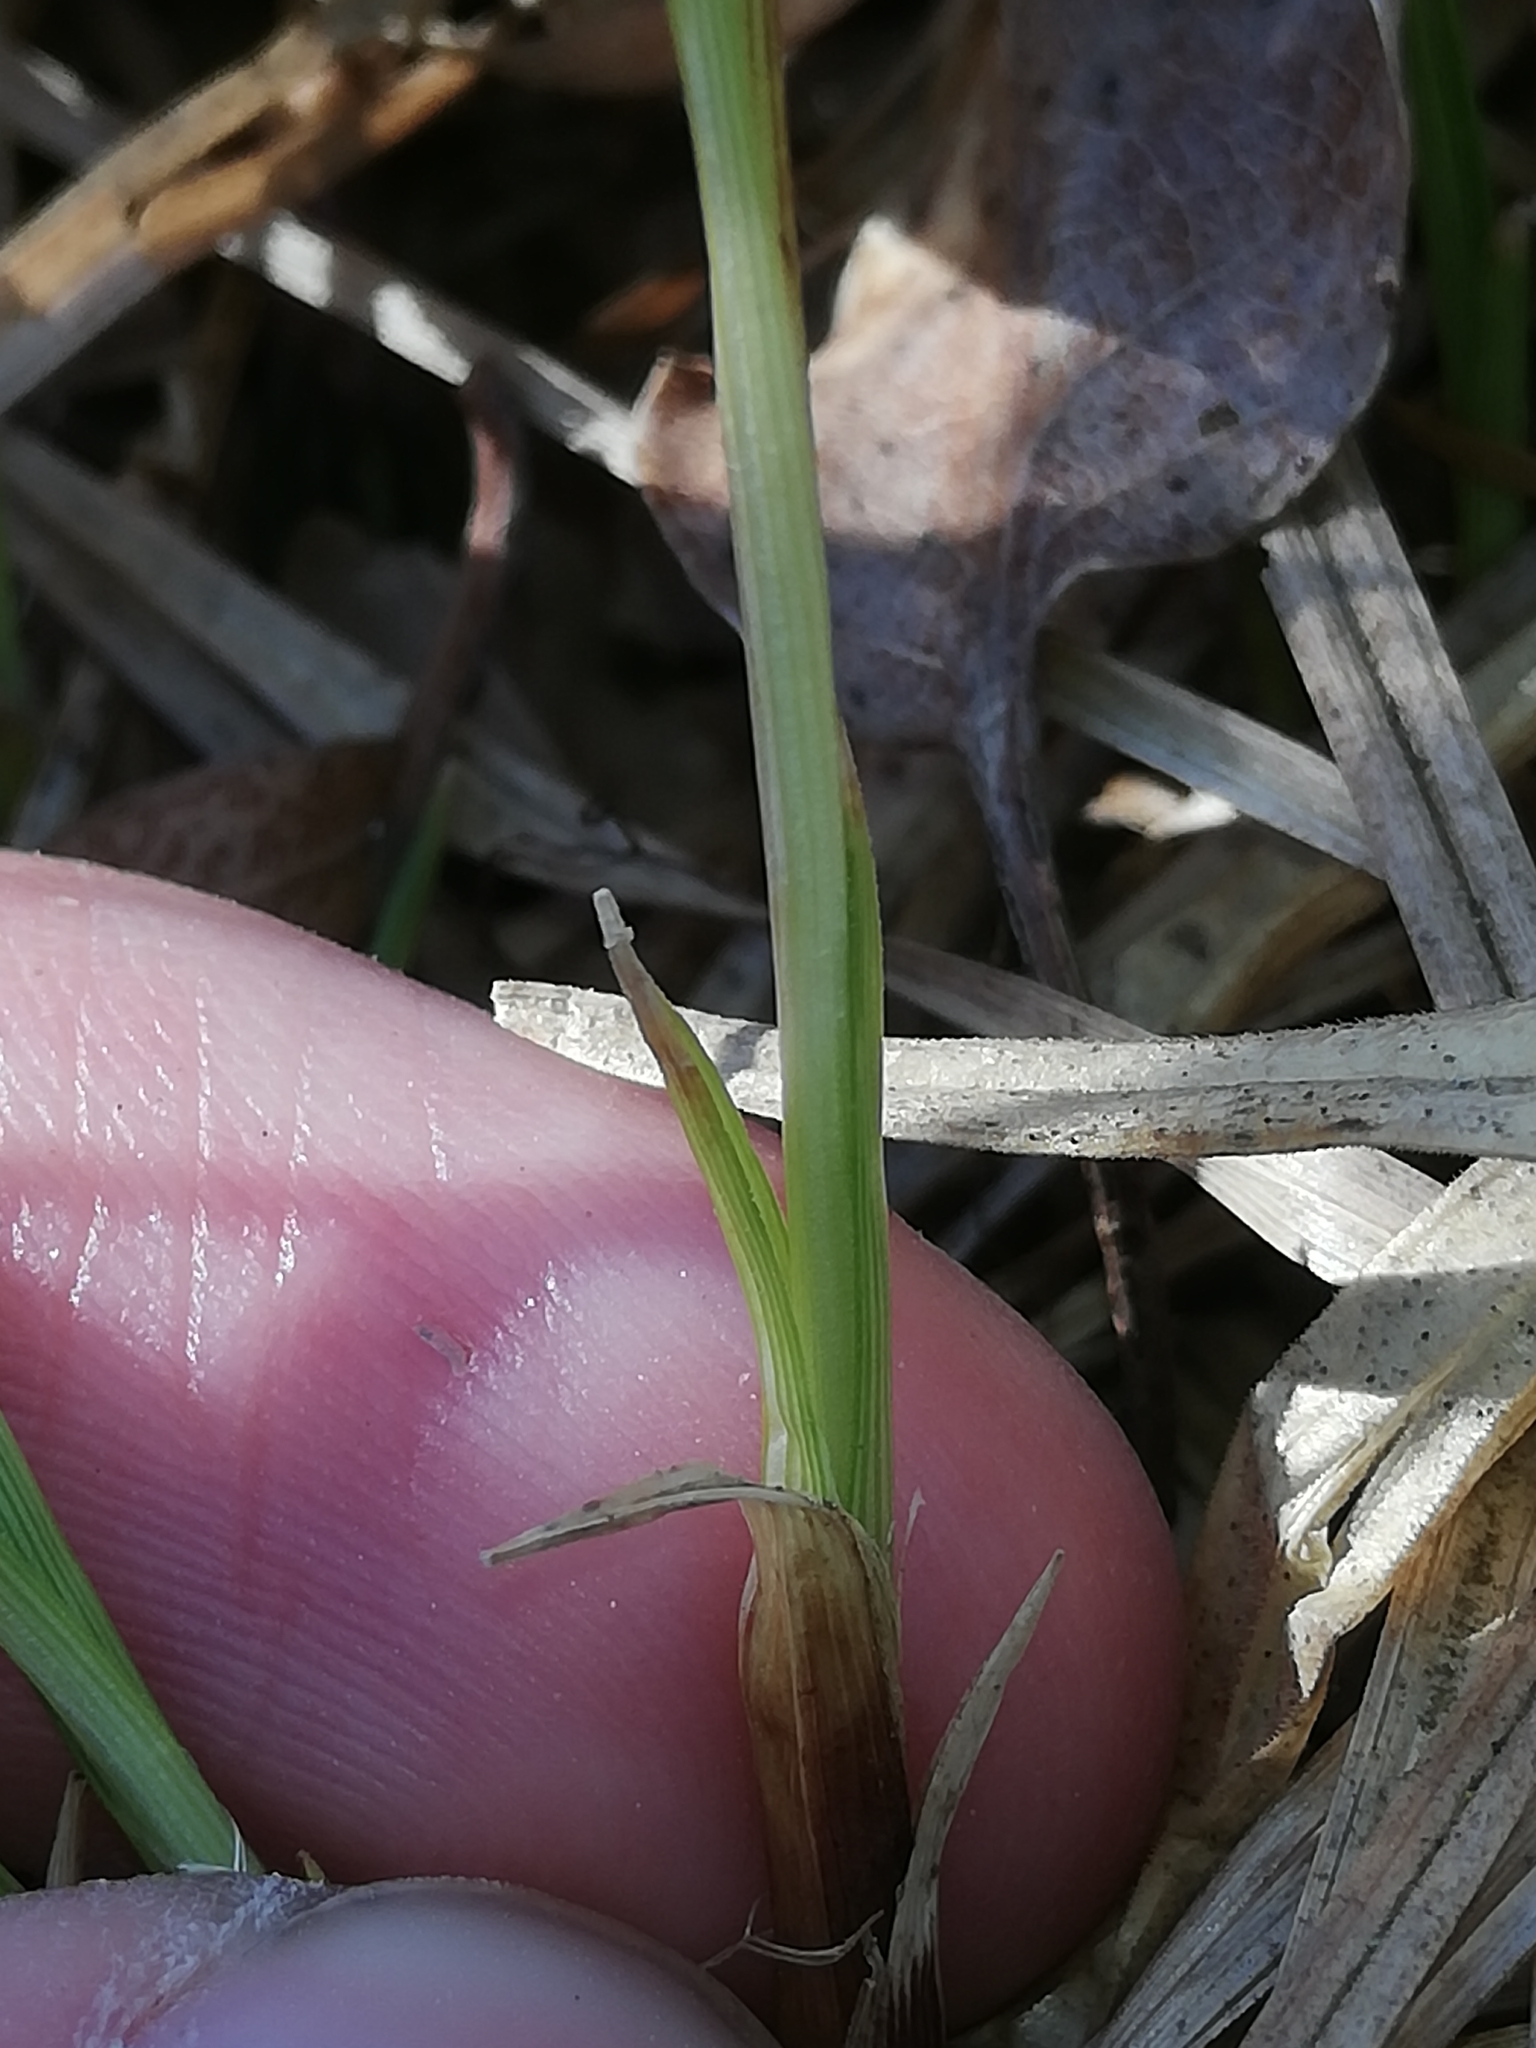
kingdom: Plantae
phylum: Tracheophyta
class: Liliopsida
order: Poales
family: Cyperaceae
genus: Carex
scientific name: Carex montana
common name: Soft-leaved sedge
